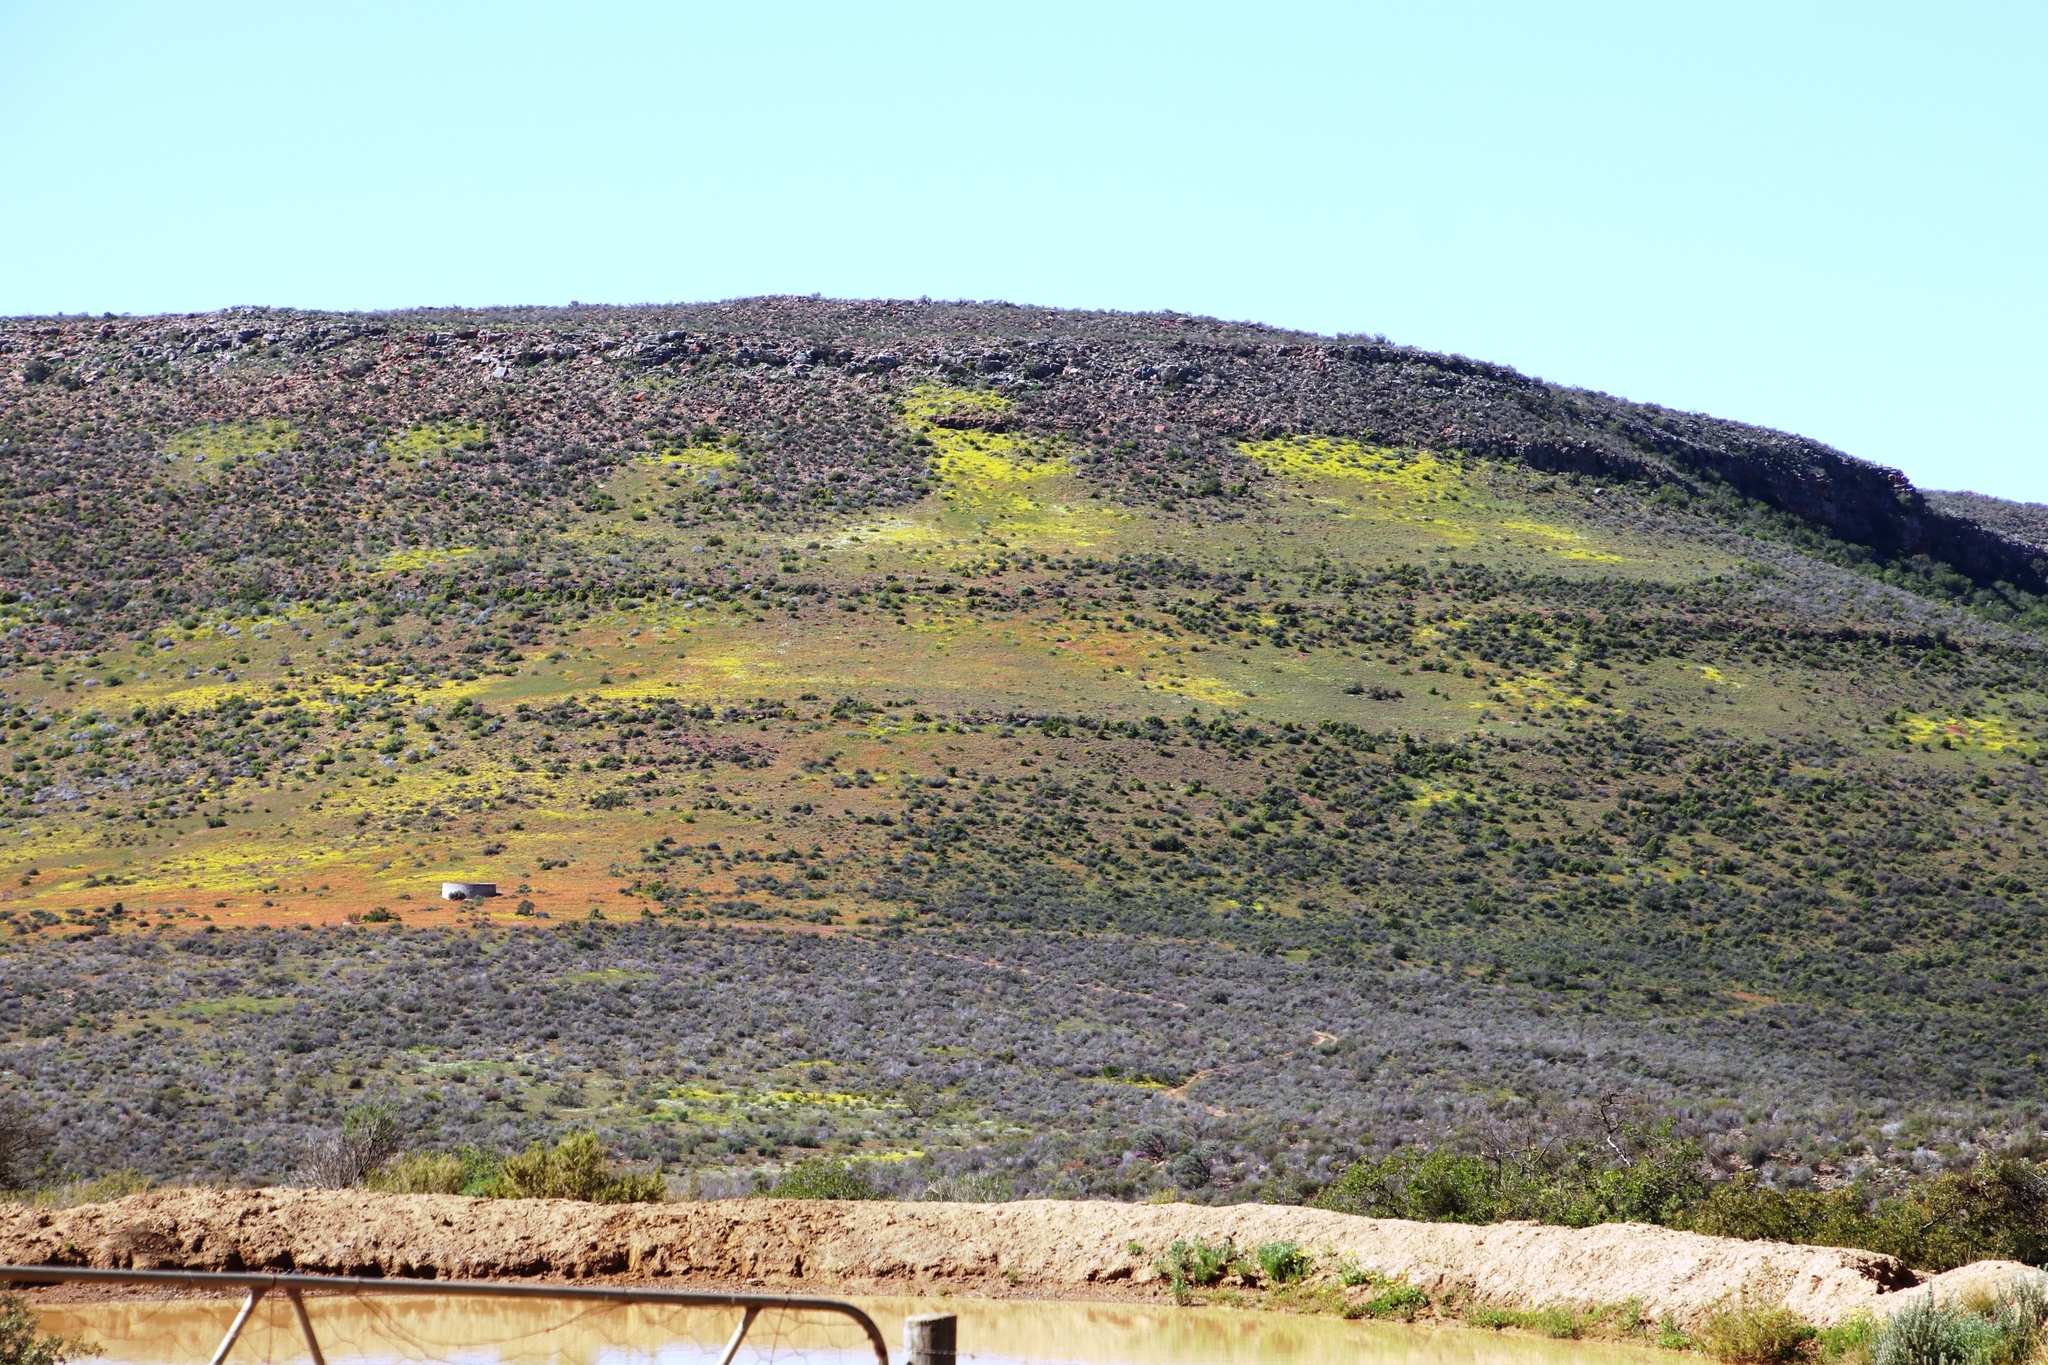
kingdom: Plantae
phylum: Tracheophyta
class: Magnoliopsida
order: Asterales
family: Asteraceae
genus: Dimorphotheca
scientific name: Dimorphotheca sinuata
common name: Glandular cape marigold
